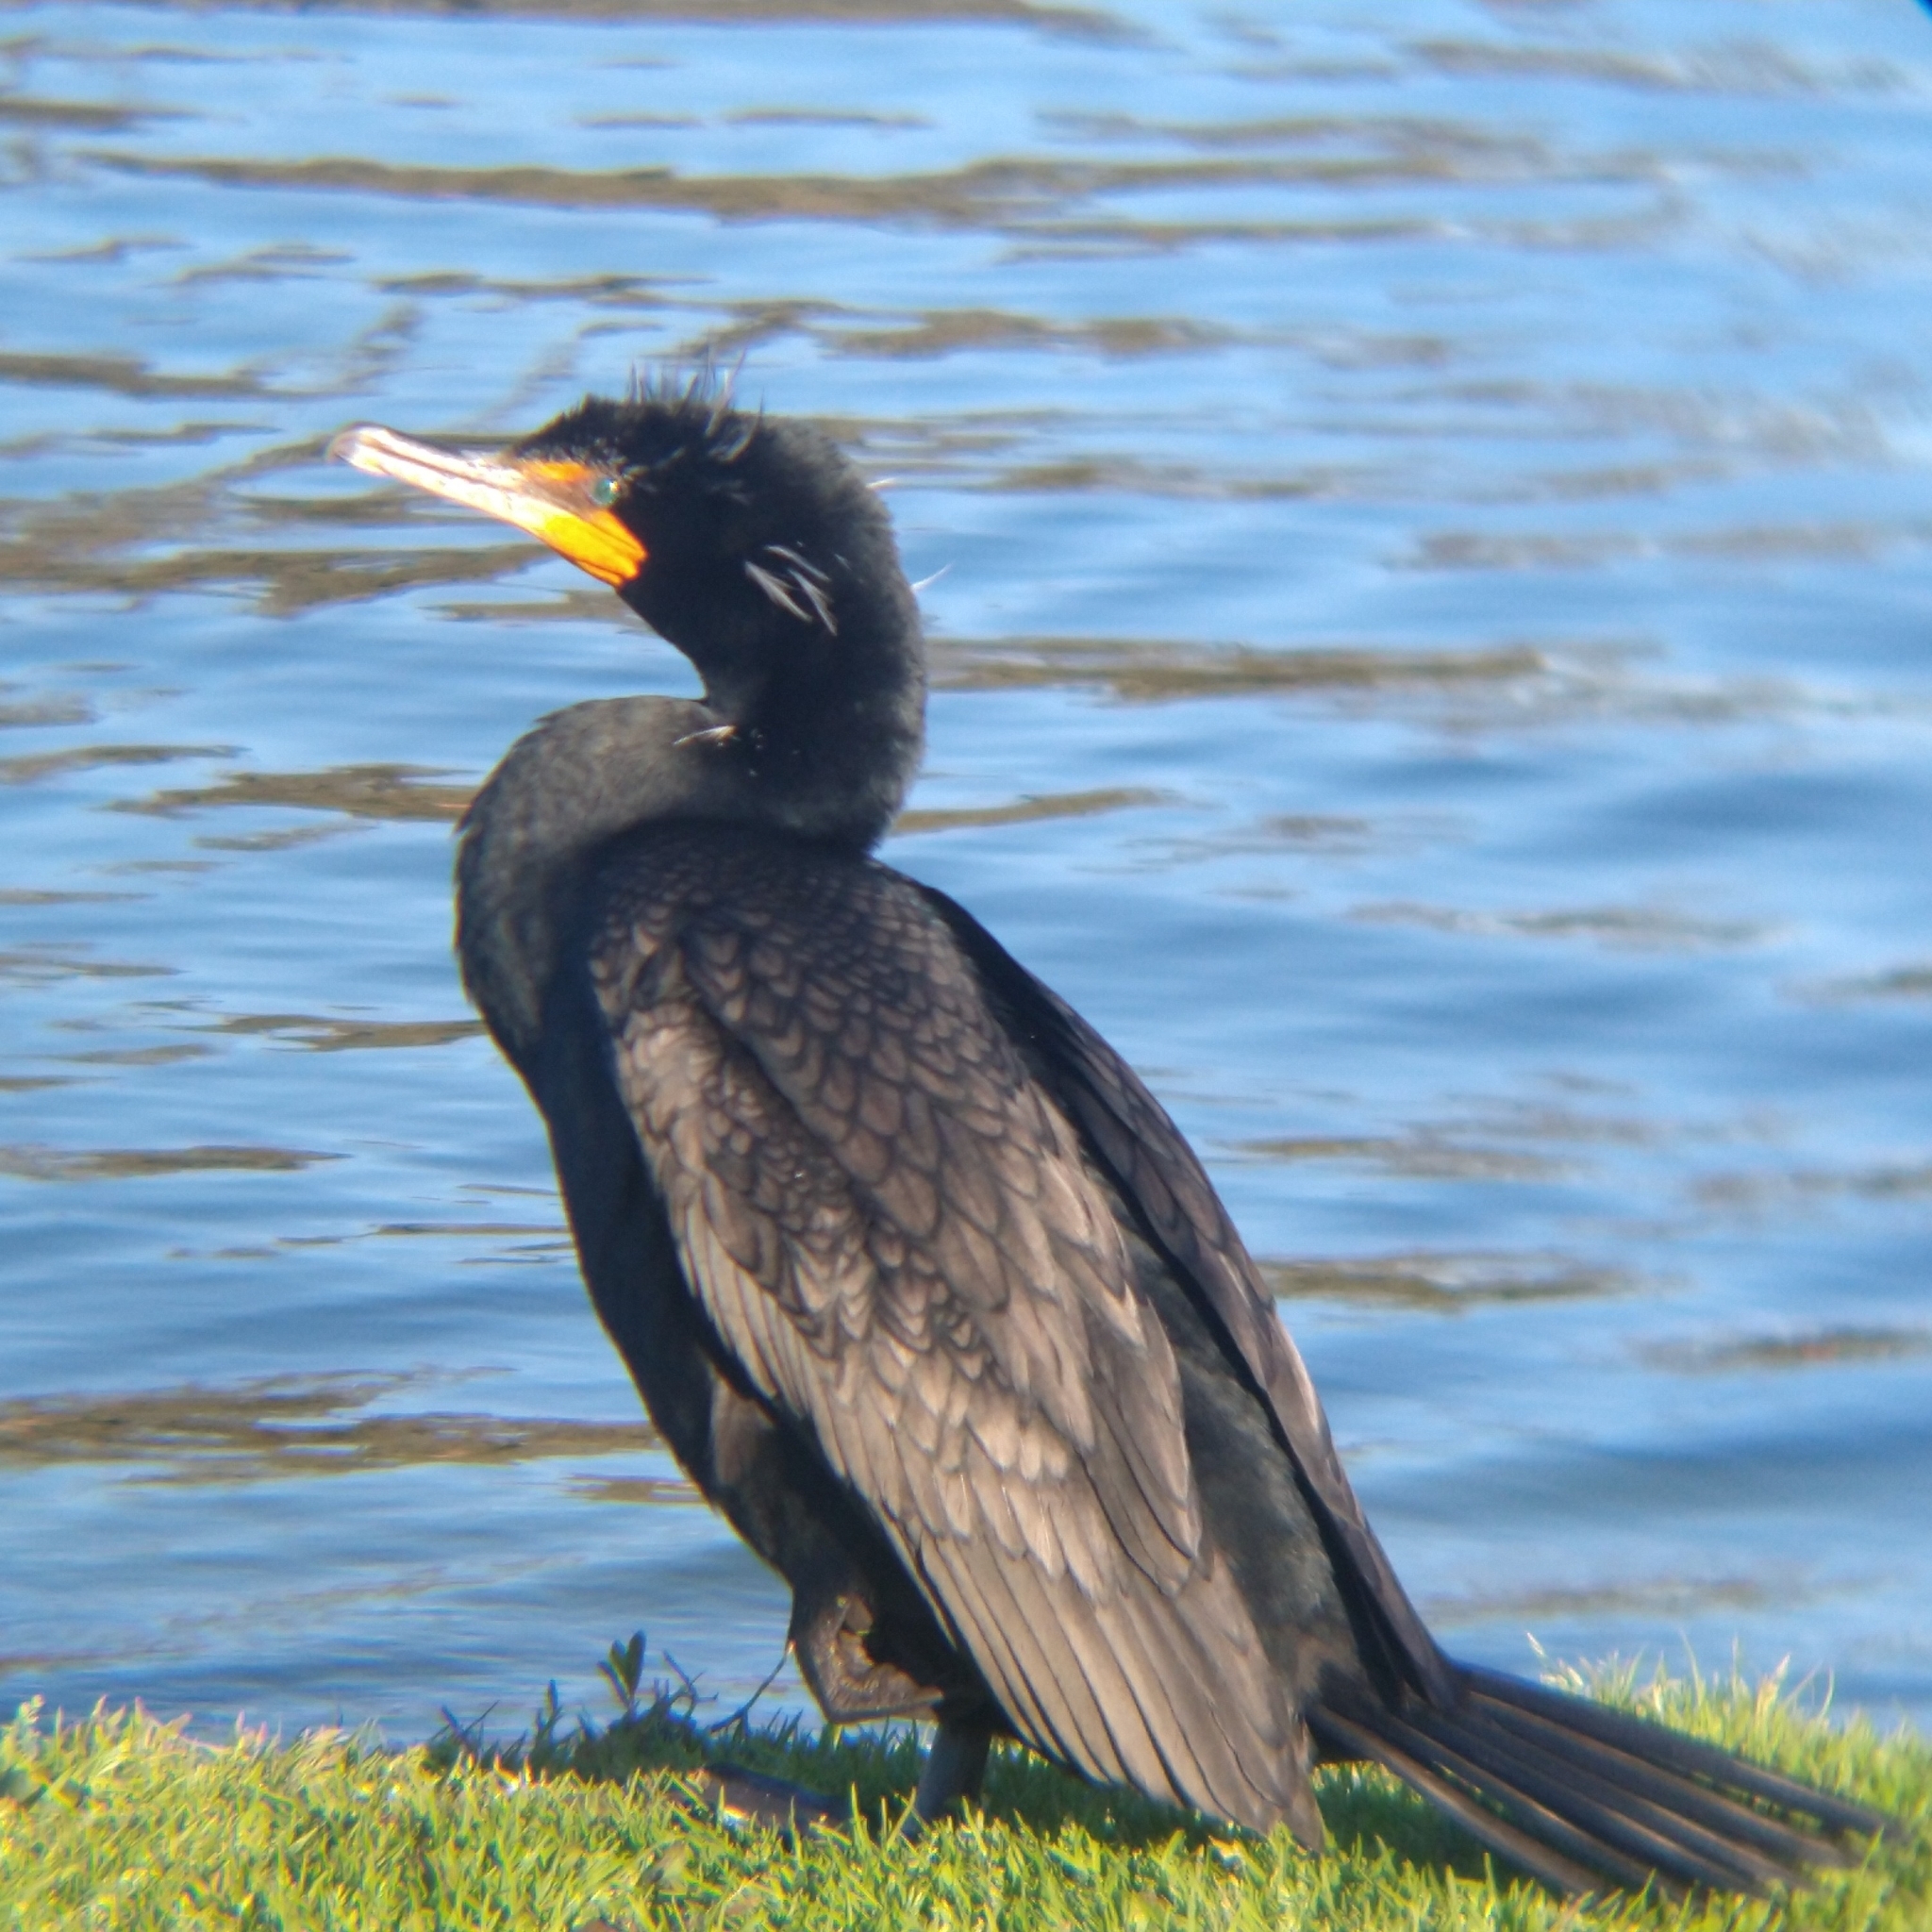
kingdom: Animalia
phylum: Chordata
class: Aves
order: Suliformes
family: Phalacrocoracidae
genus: Phalacrocorax
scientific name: Phalacrocorax auritus
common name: Double-crested cormorant
